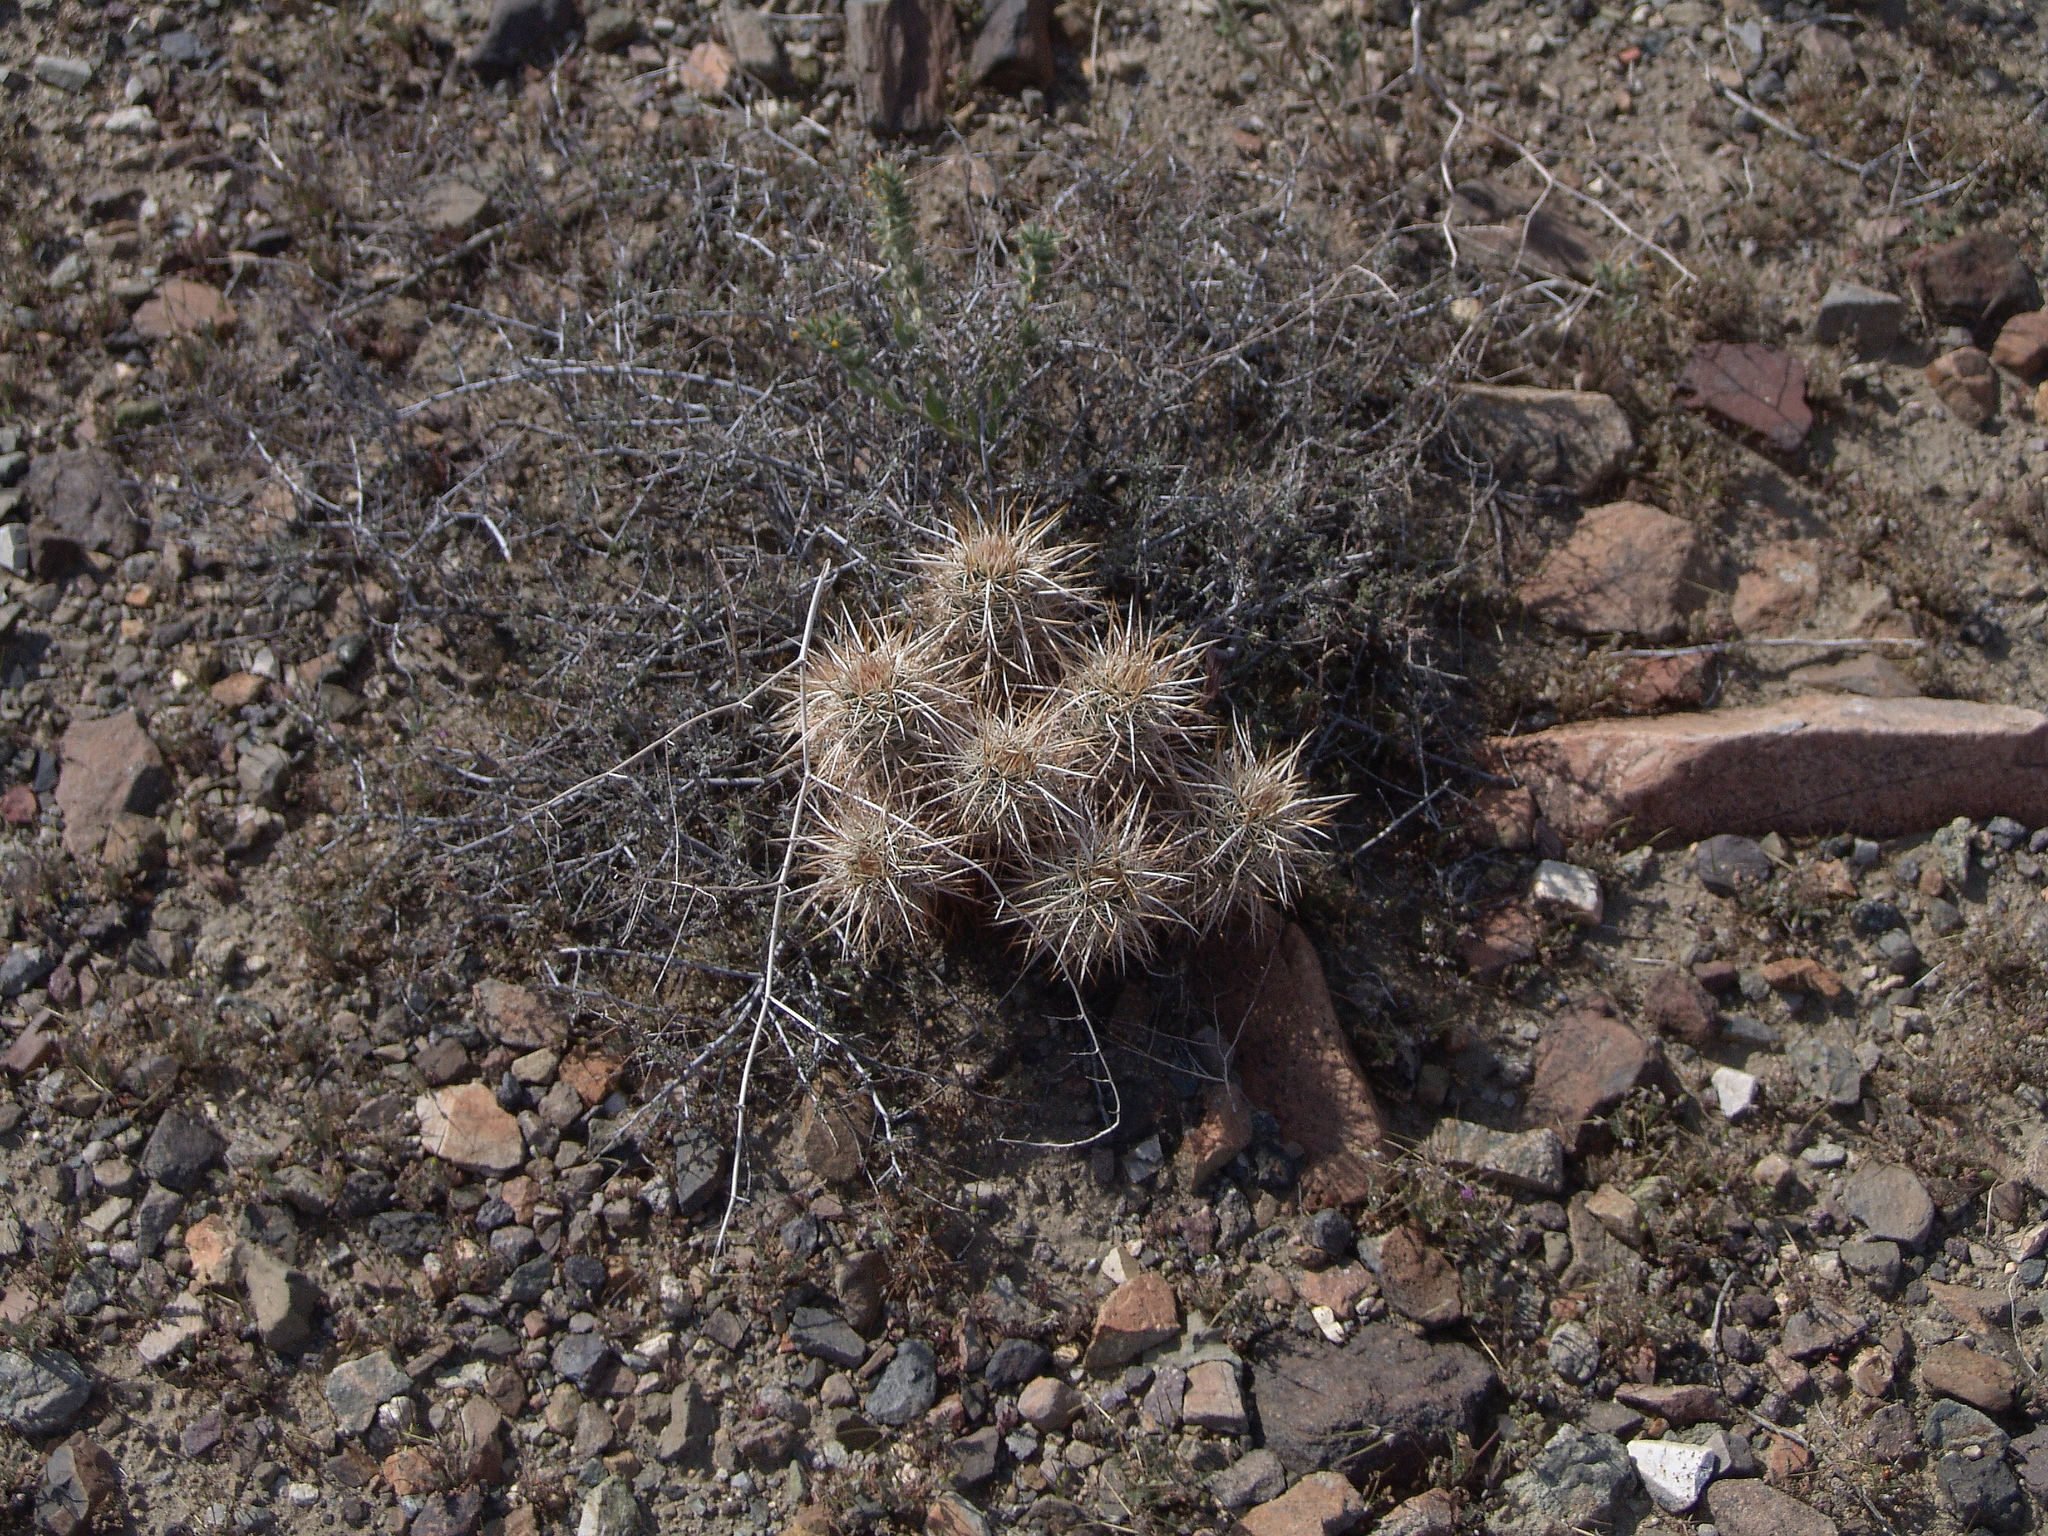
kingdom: Plantae
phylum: Tracheophyta
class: Magnoliopsida
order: Caryophyllales
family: Cactaceae
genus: Echinocereus
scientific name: Echinocereus engelmannii
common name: Engelmann's hedgehog cactus
